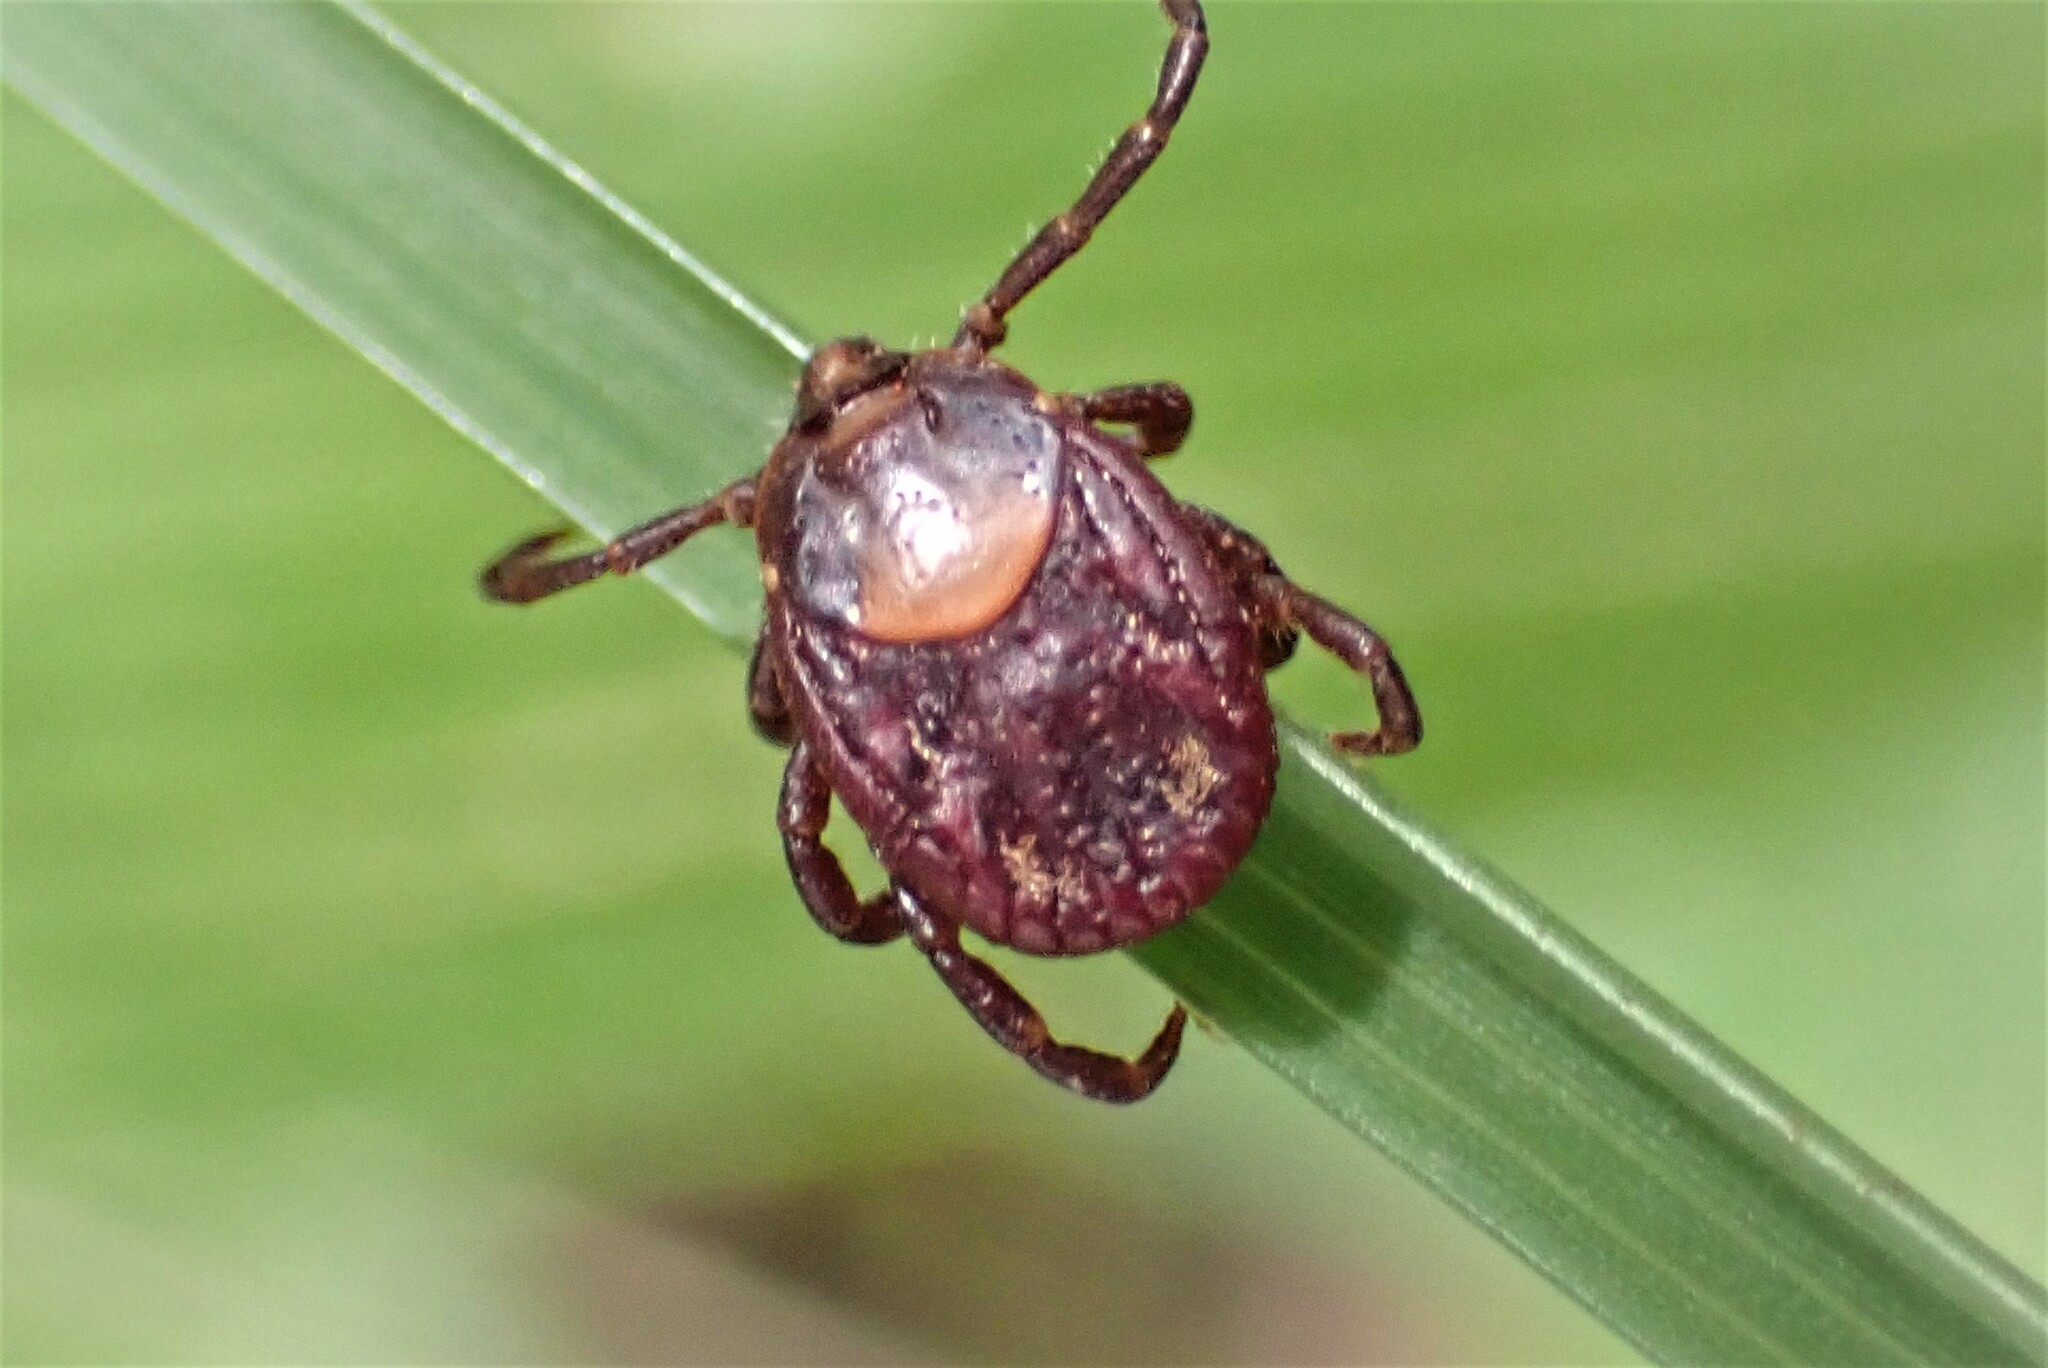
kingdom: Animalia
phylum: Arthropoda
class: Arachnida
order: Ixodida
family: Ixodidae
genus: Rhipicephalus
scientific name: Rhipicephalus maculatus
